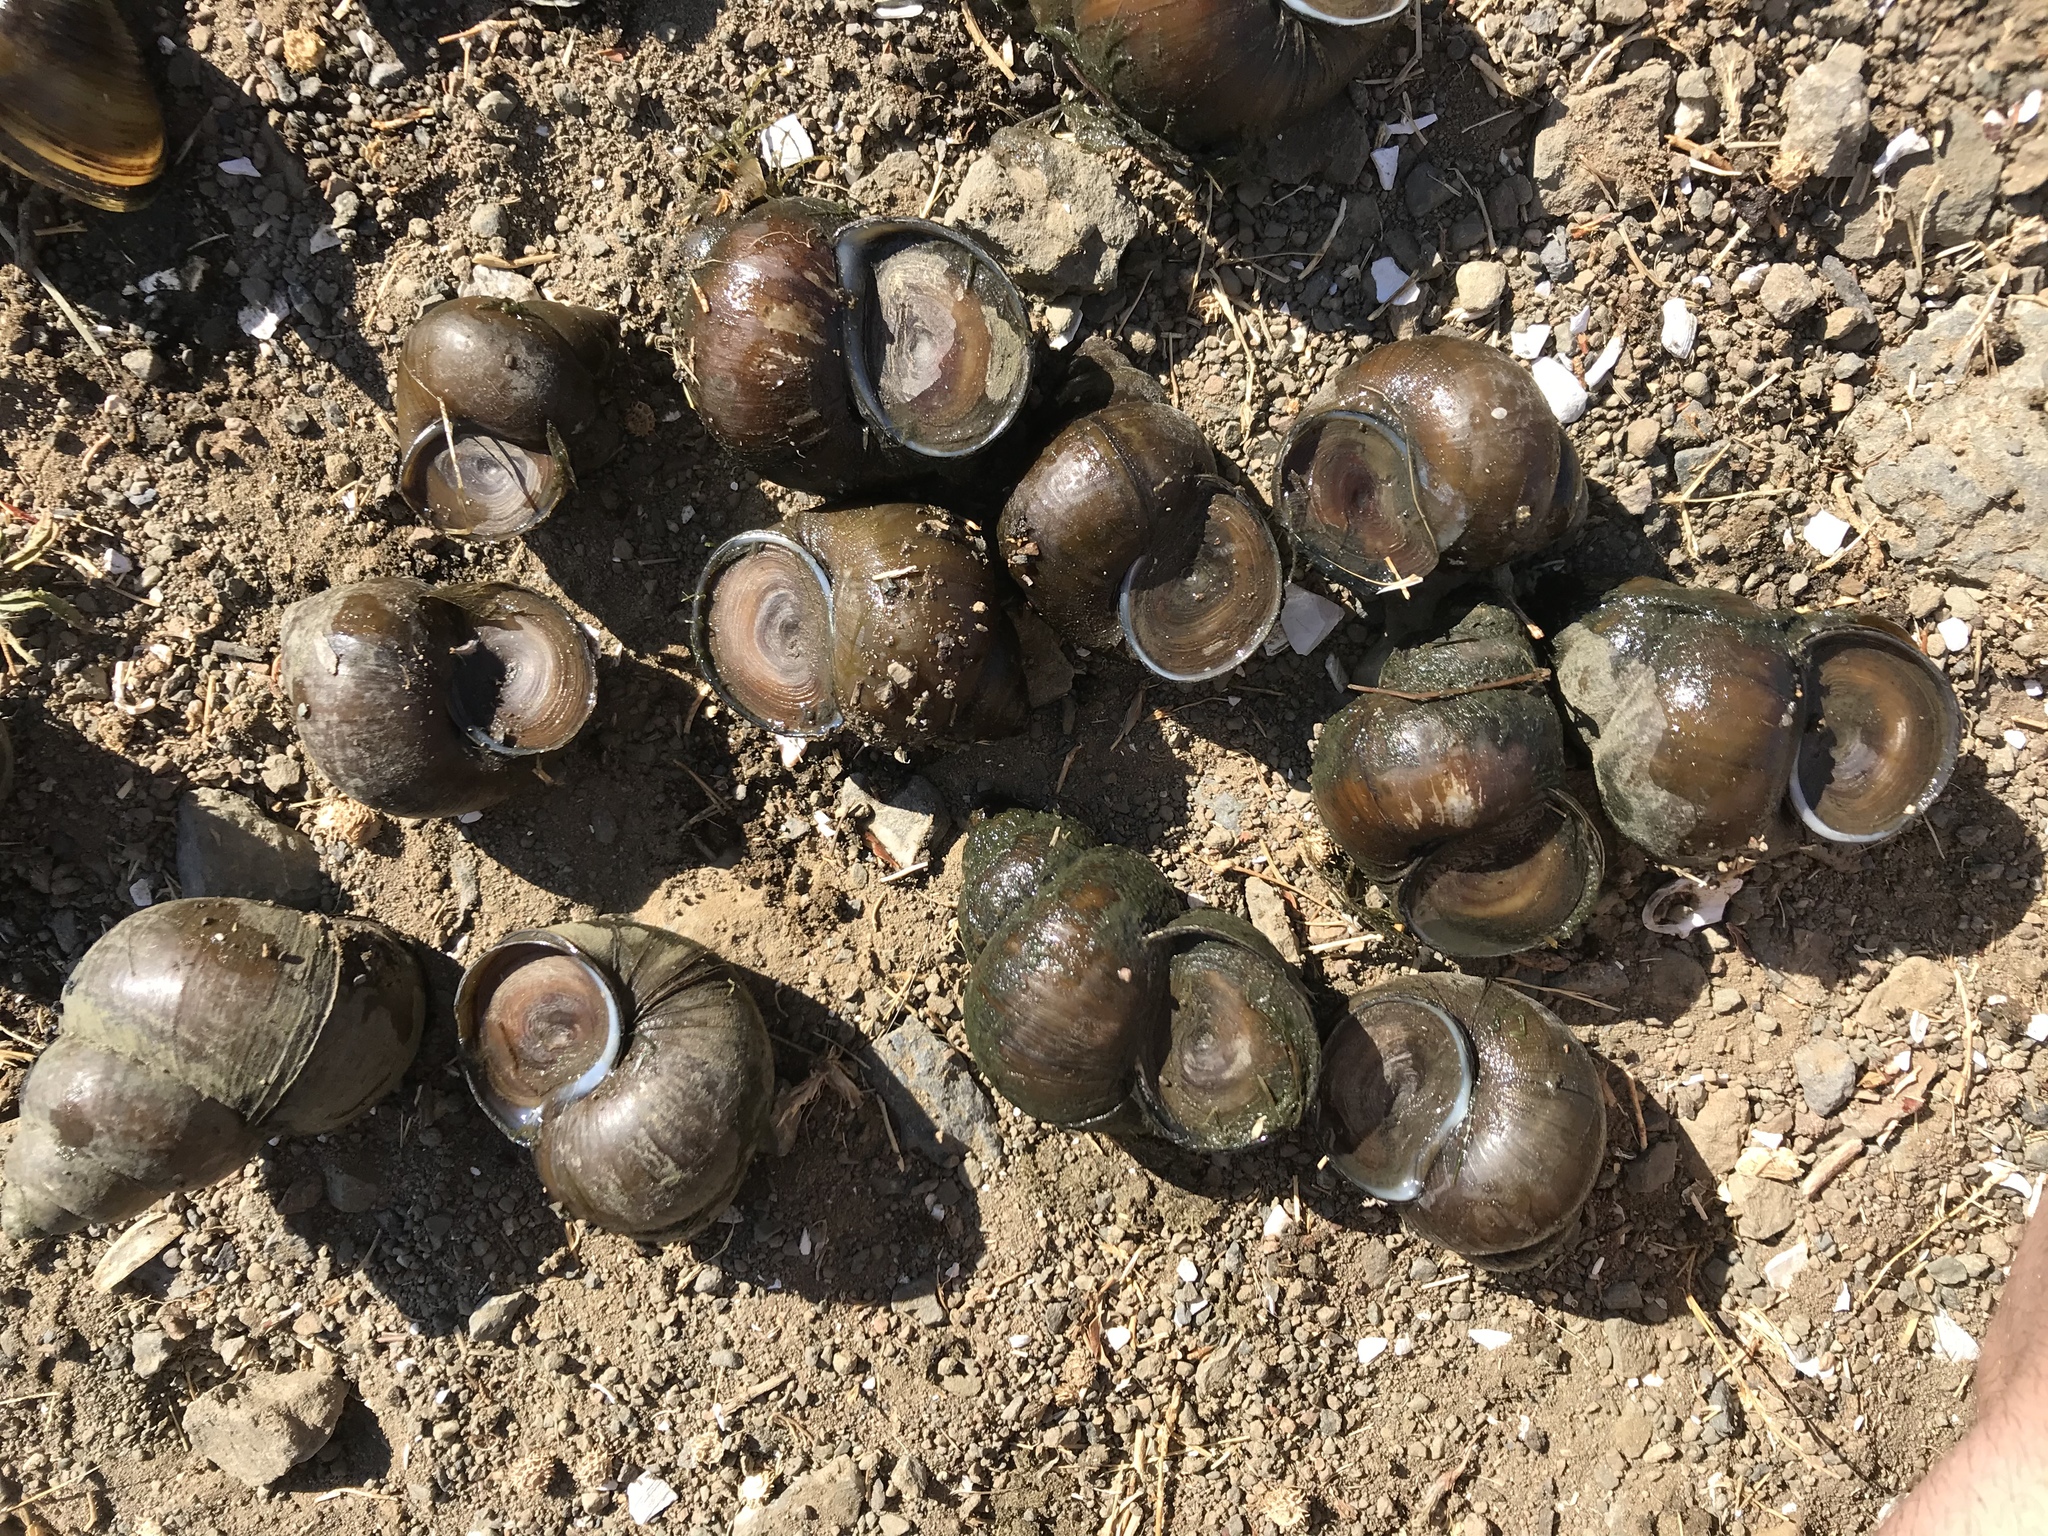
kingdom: Animalia
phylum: Mollusca
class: Gastropoda
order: Architaenioglossa
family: Viviparidae
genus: Cipangopaludina
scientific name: Cipangopaludina chinensis
